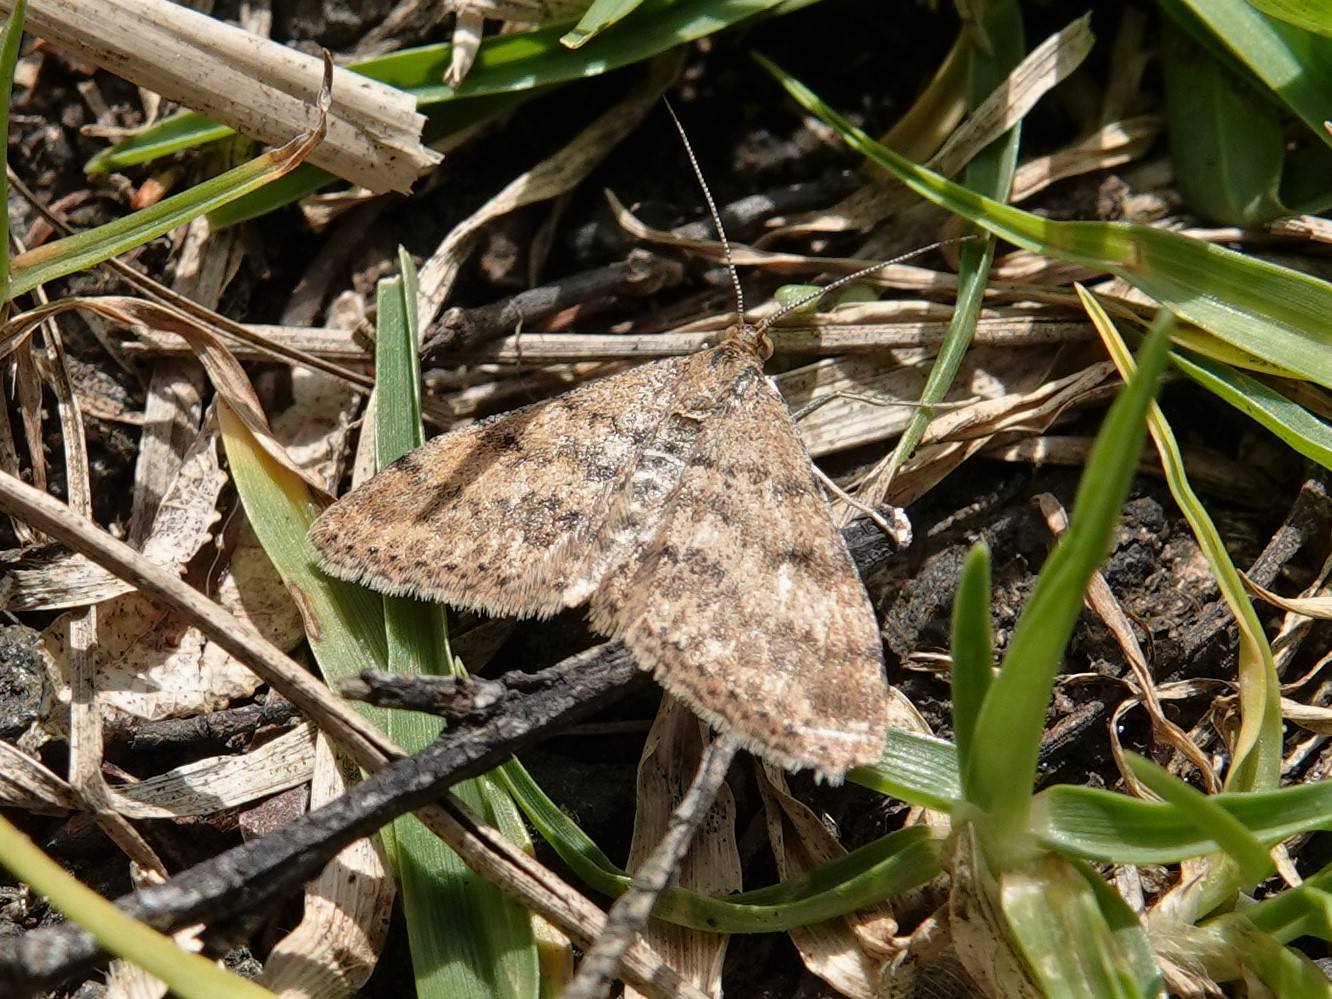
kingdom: Animalia
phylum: Arthropoda
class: Insecta
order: Lepidoptera
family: Geometridae
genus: Scopula
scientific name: Scopula rubraria
